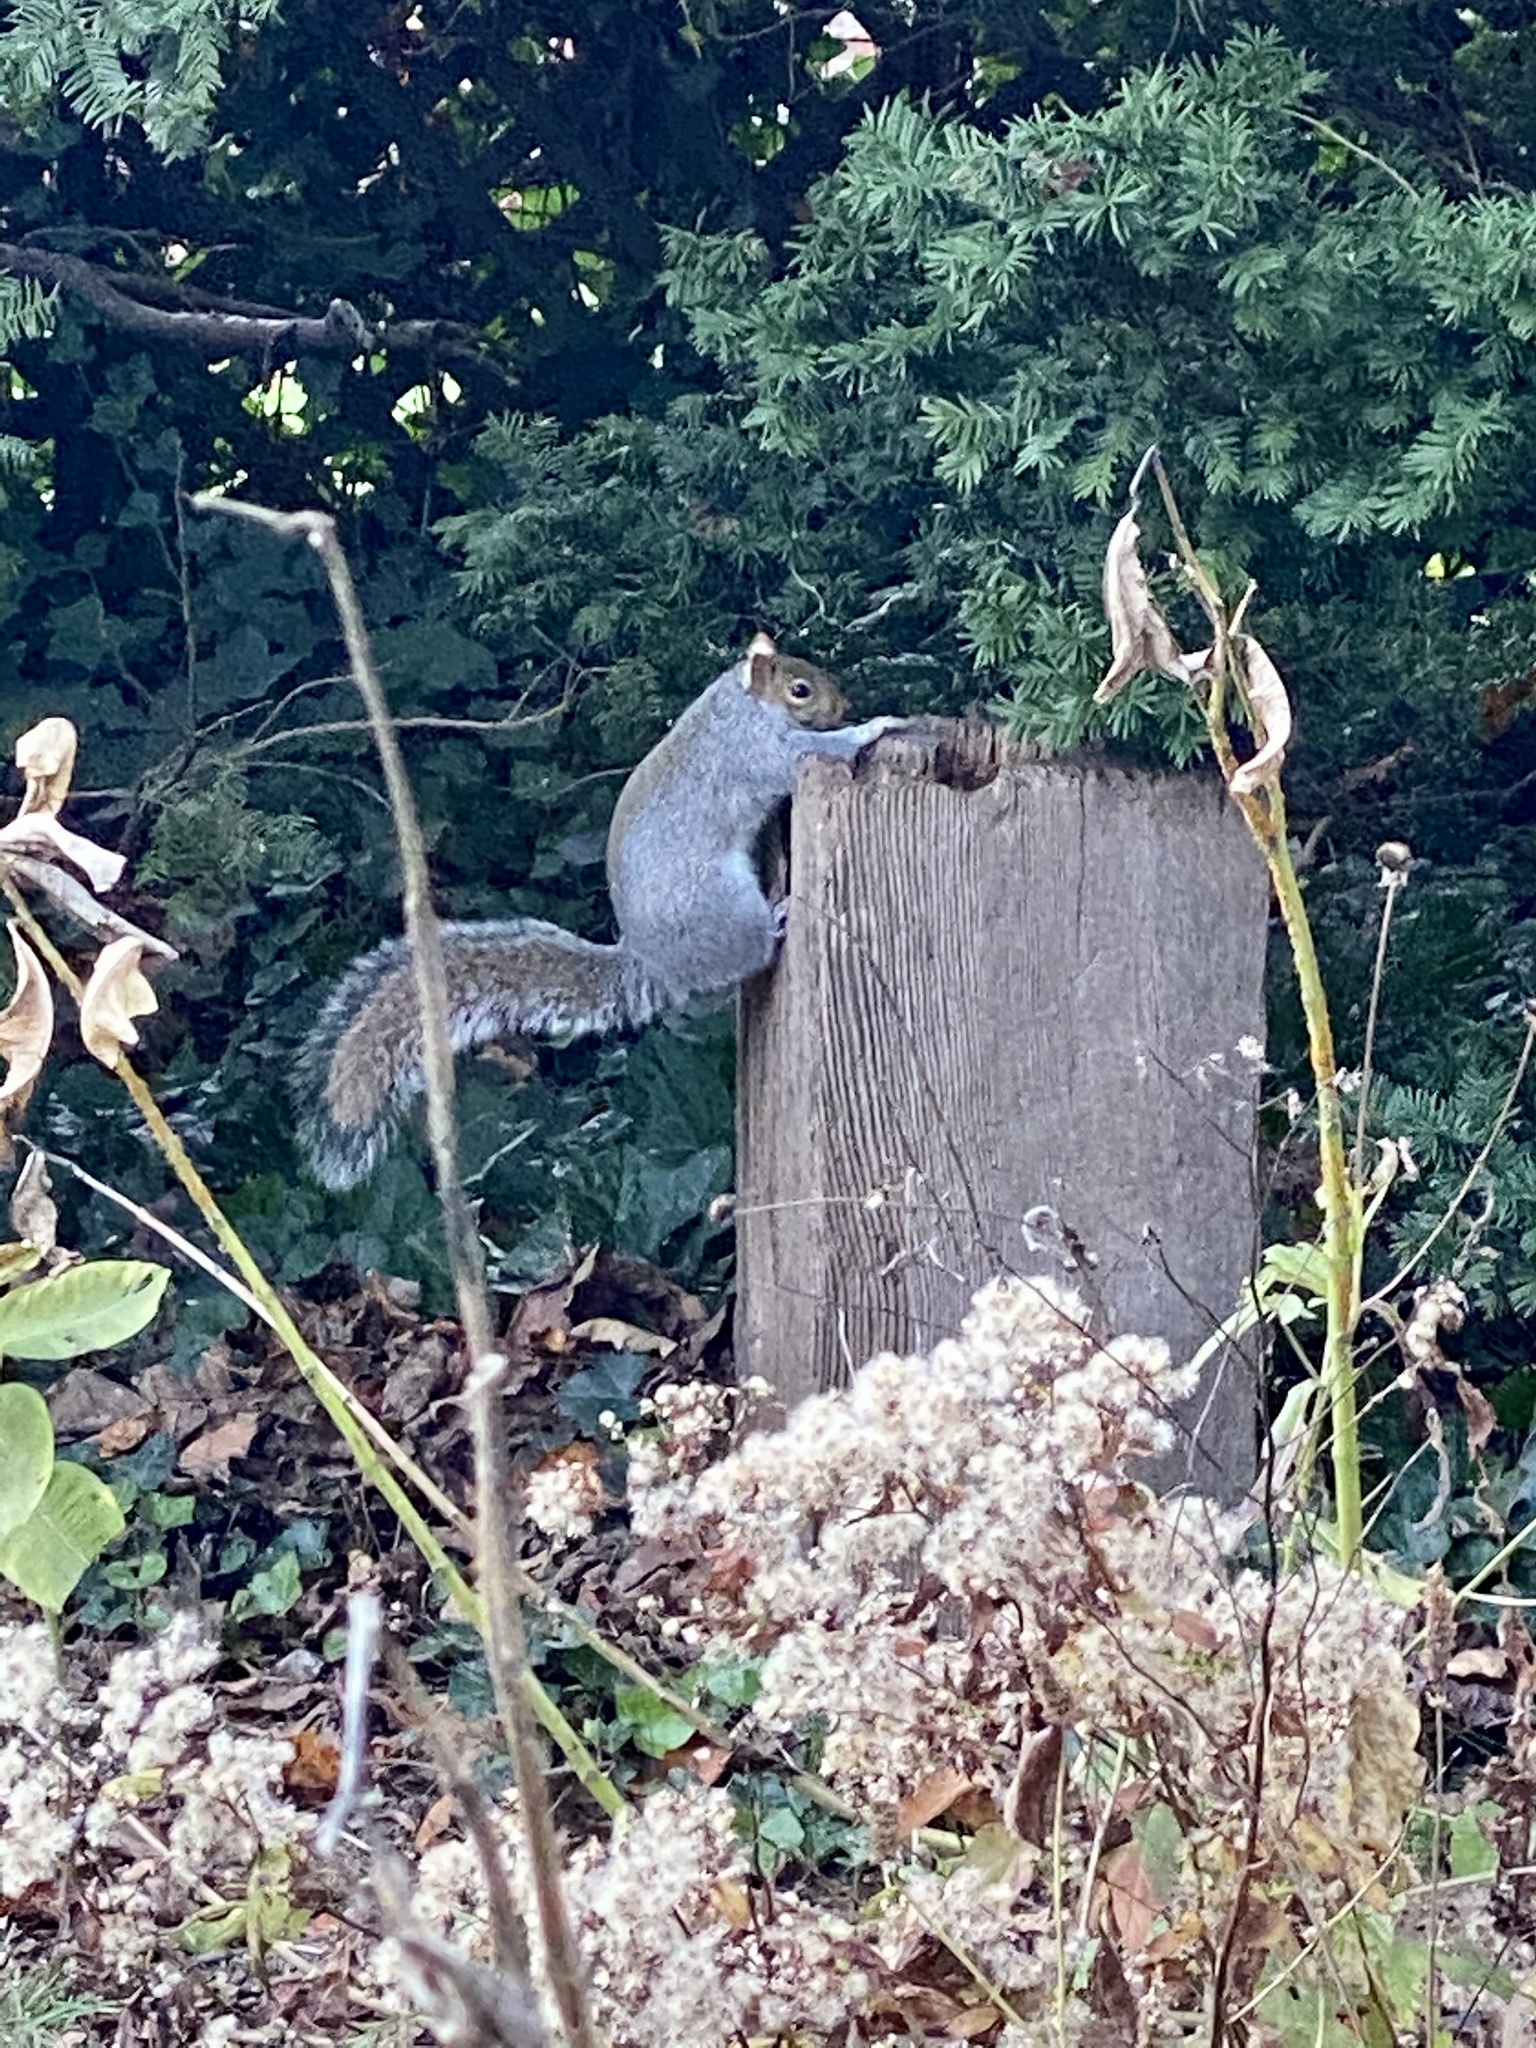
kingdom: Animalia
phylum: Chordata
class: Mammalia
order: Rodentia
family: Sciuridae
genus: Sciurus
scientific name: Sciurus carolinensis
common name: Eastern gray squirrel
